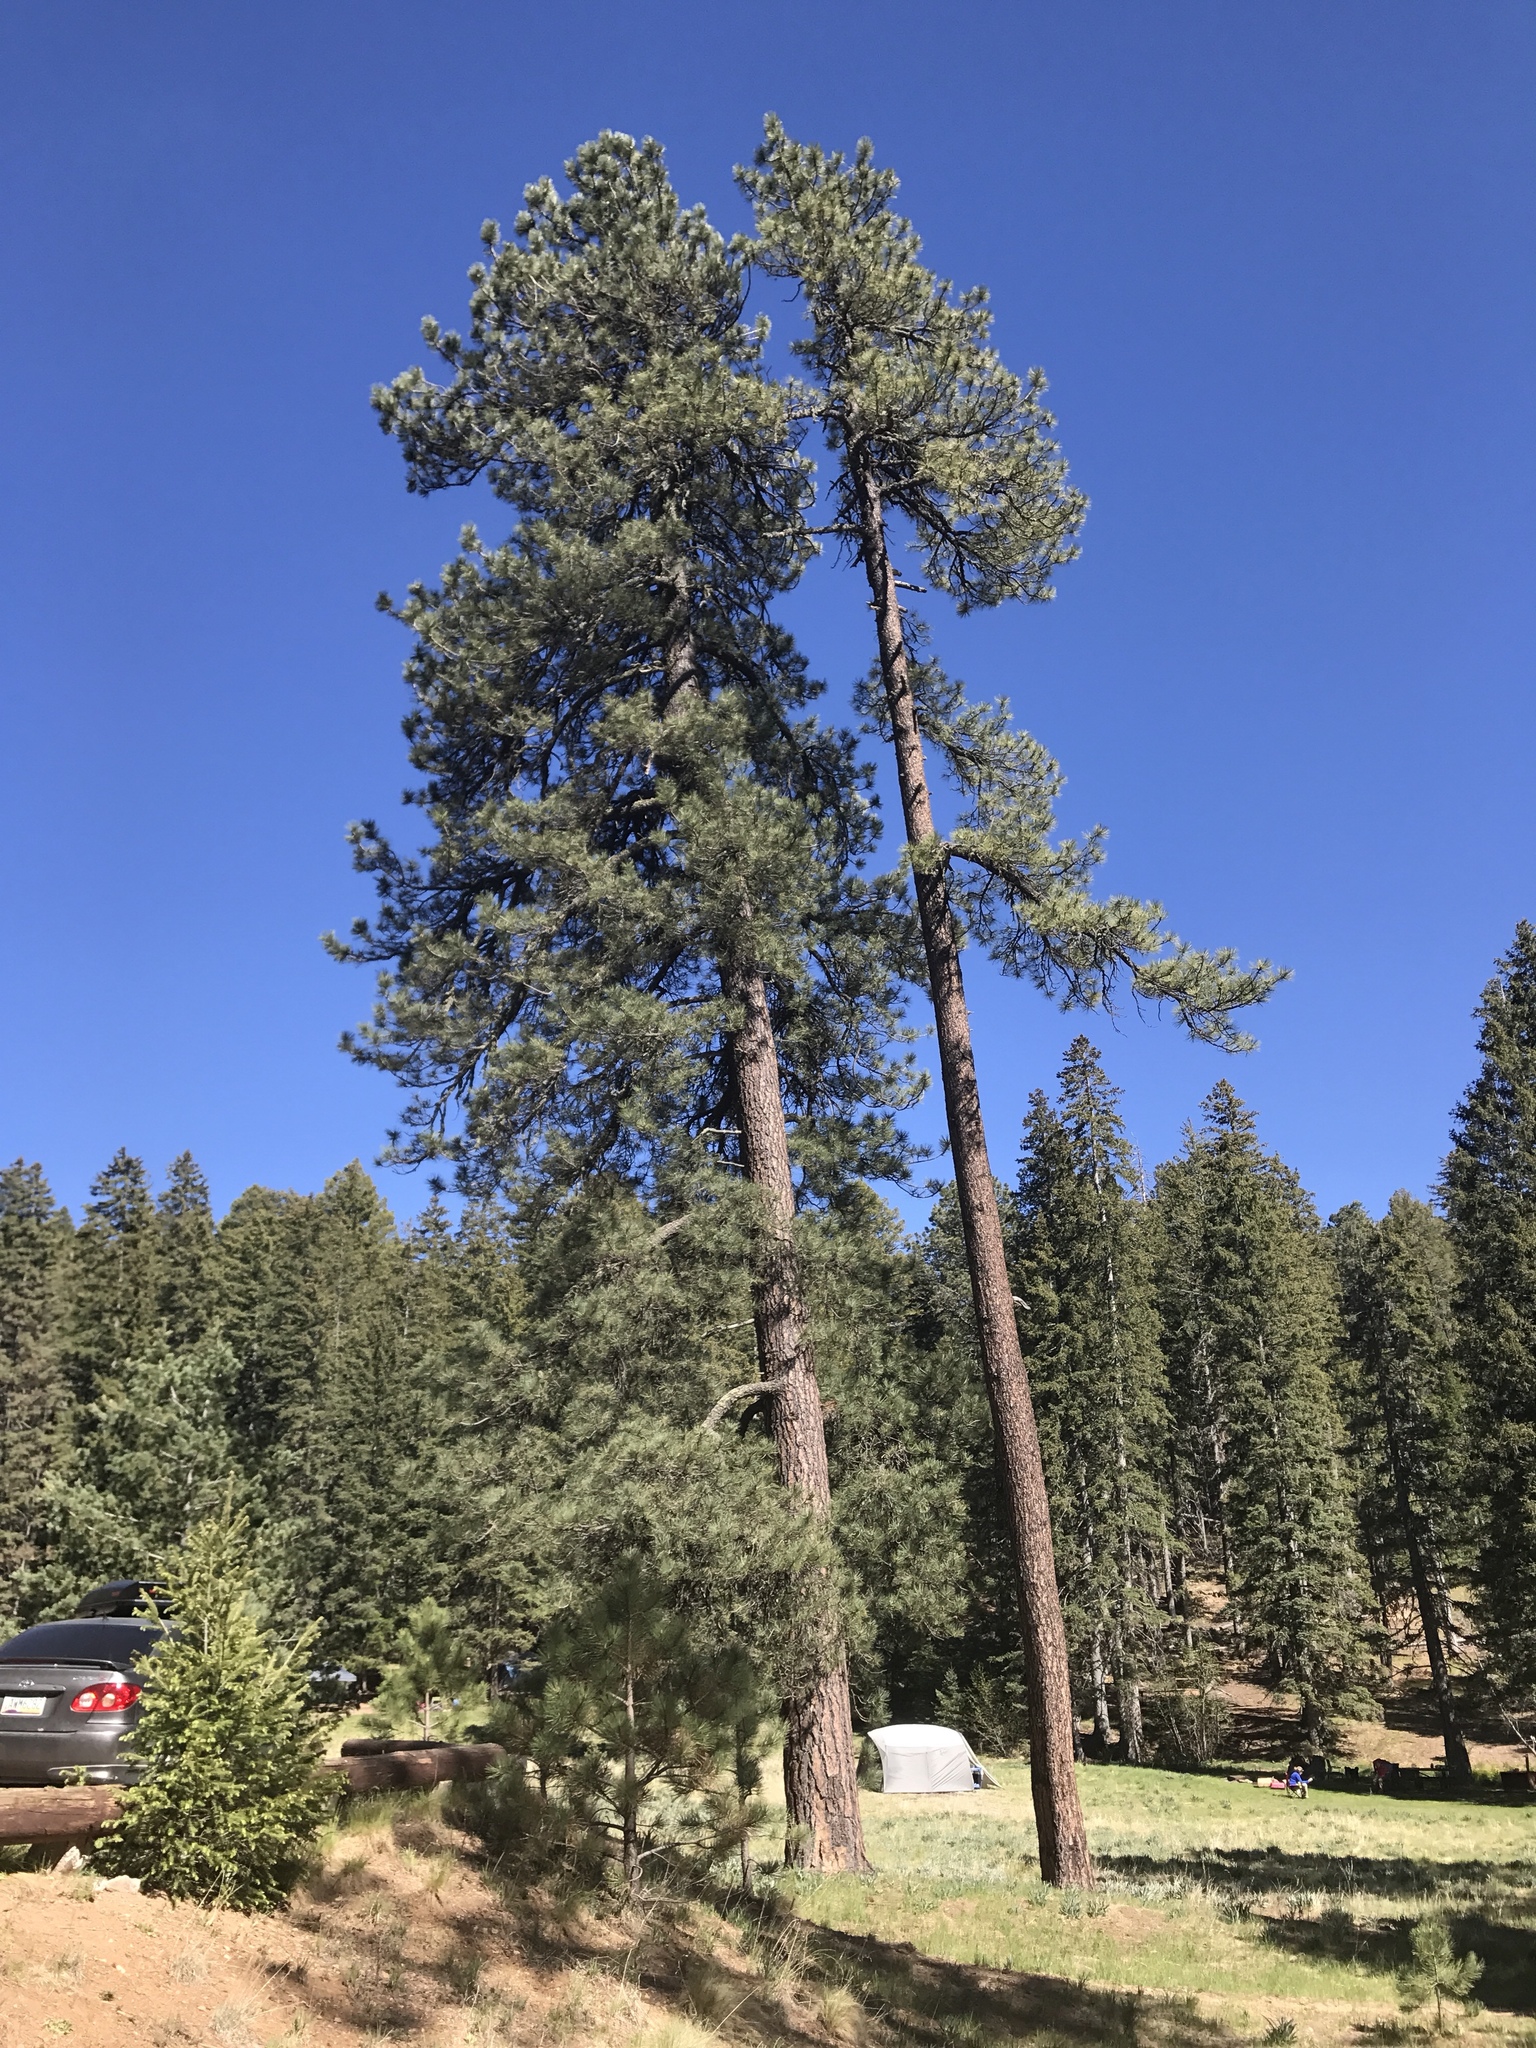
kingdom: Plantae
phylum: Tracheophyta
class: Pinopsida
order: Pinales
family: Pinaceae
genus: Pinus
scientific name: Pinus ponderosa
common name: Western yellow-pine
